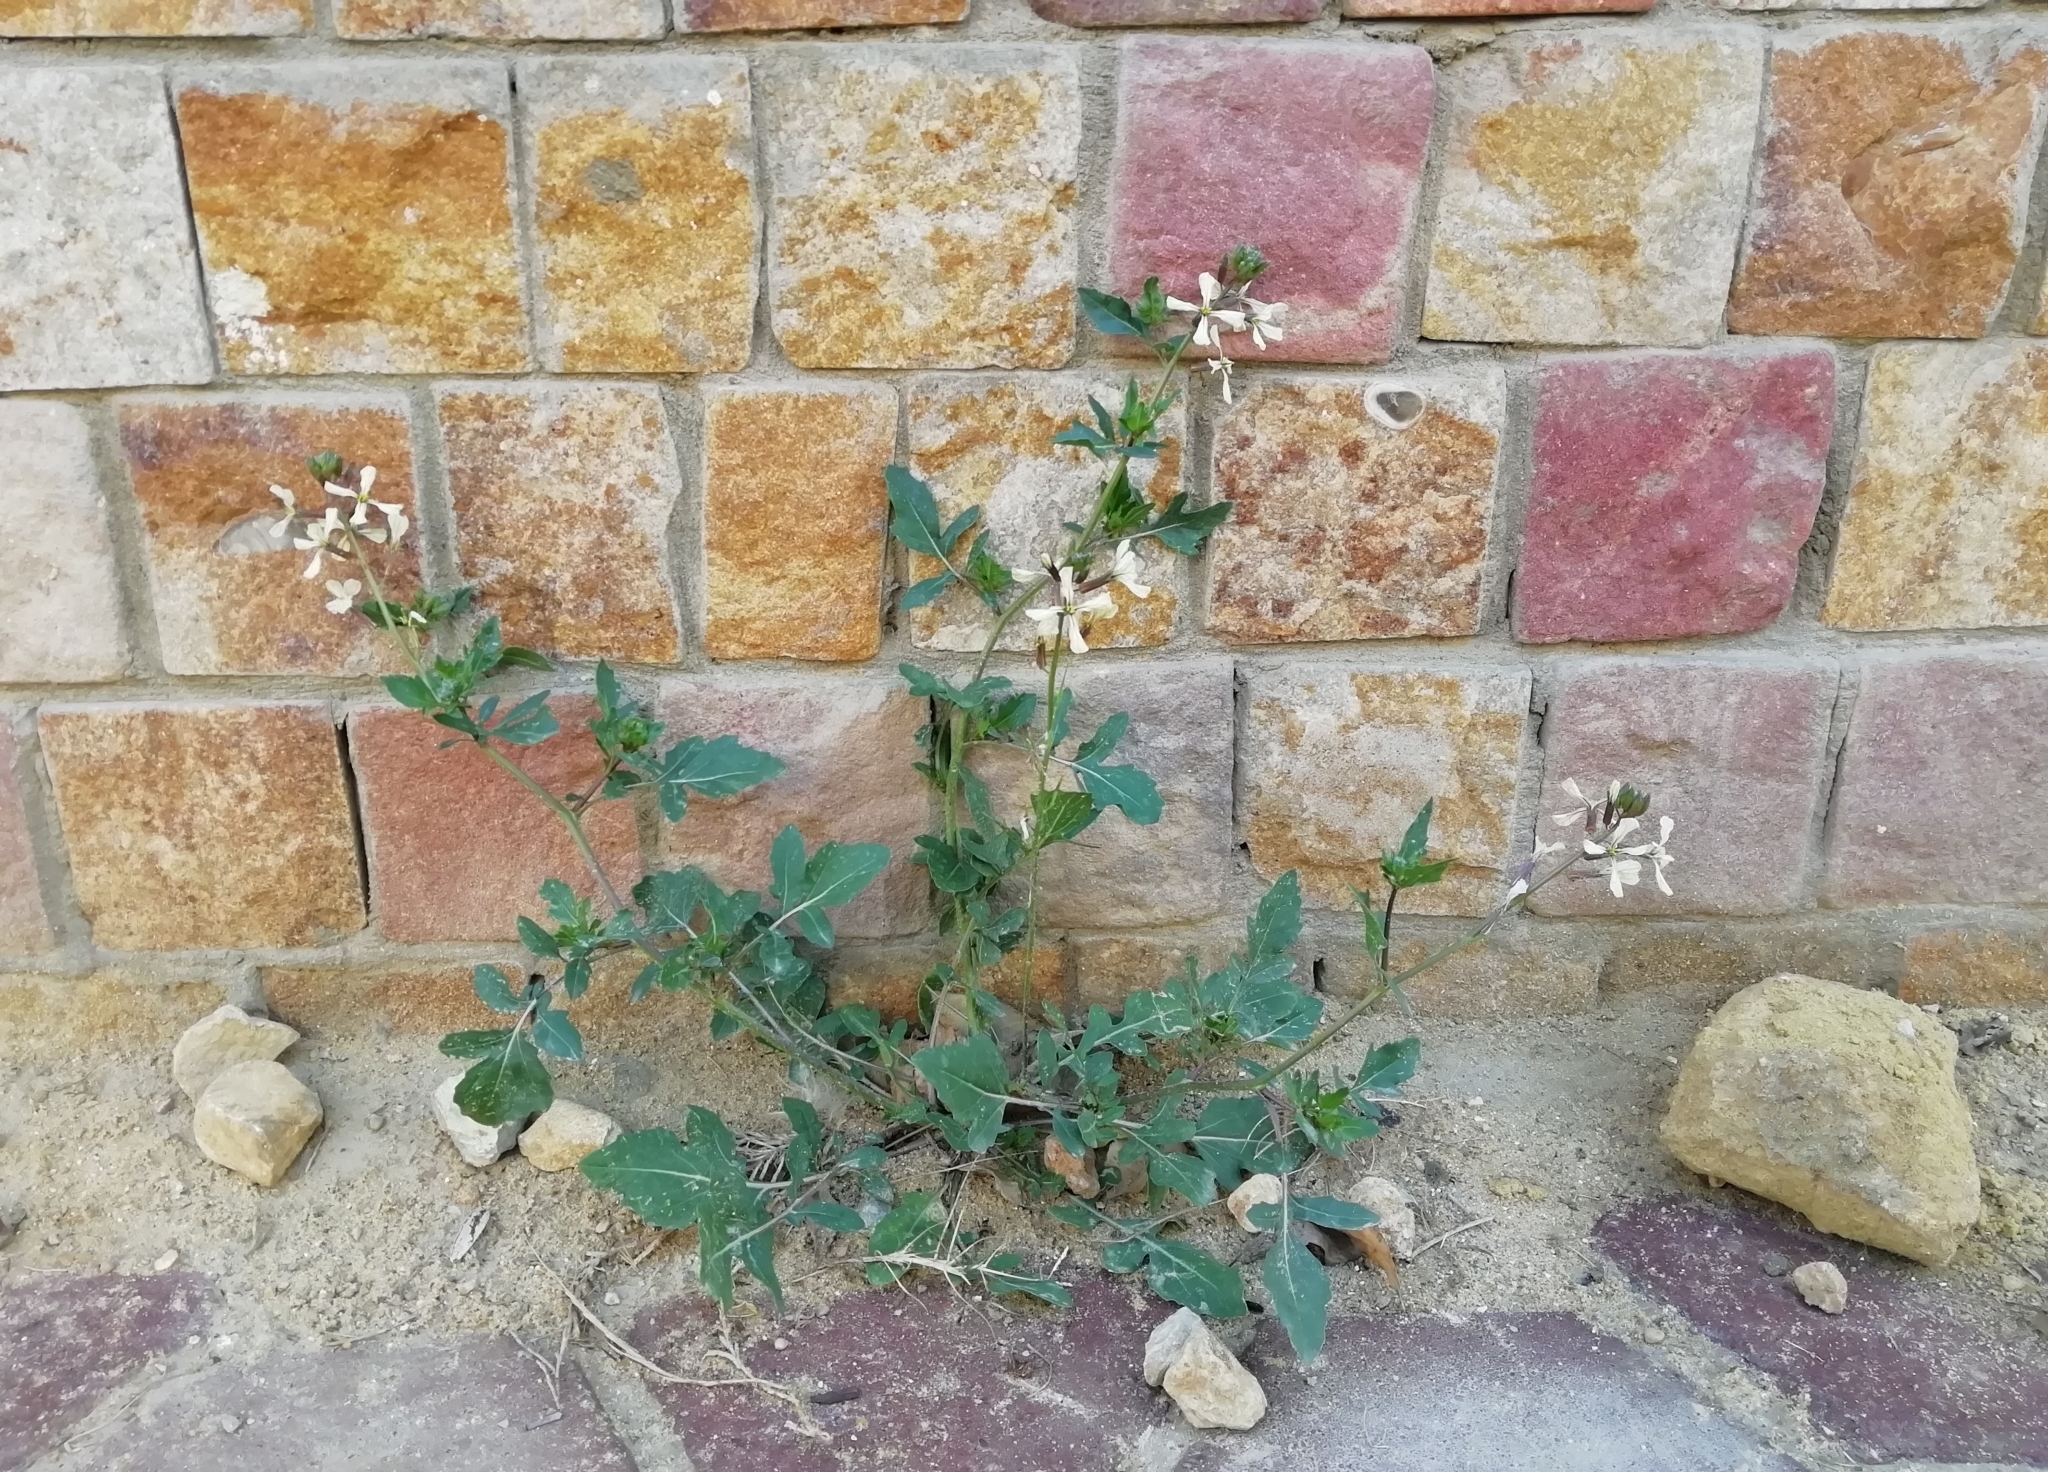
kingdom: Plantae
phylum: Tracheophyta
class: Magnoliopsida
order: Brassicales
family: Brassicaceae
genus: Eruca
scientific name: Eruca vesicaria
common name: Garden rocket
